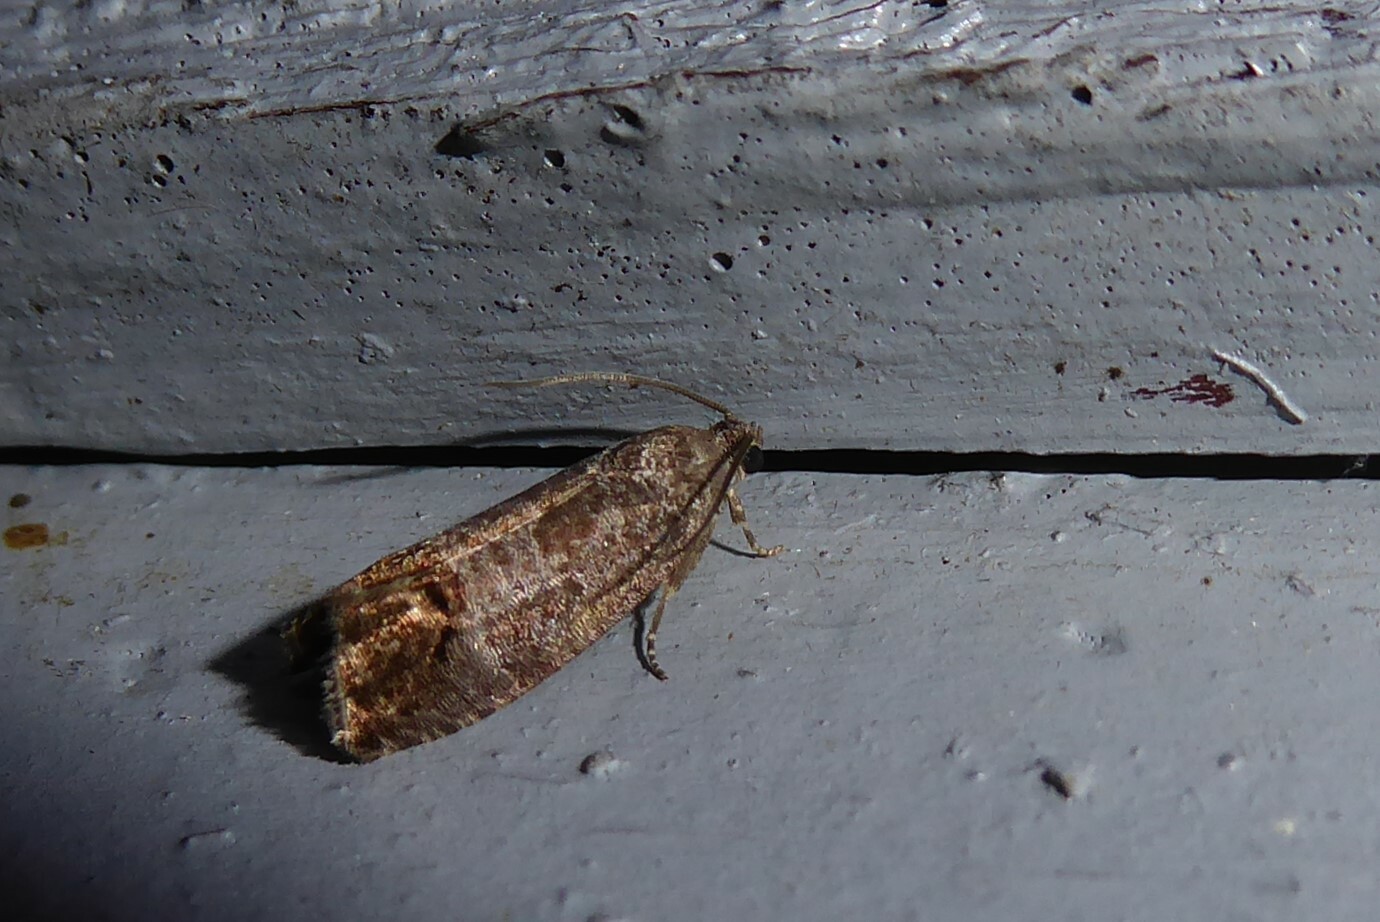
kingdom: Animalia
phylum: Arthropoda
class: Insecta
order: Lepidoptera
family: Tortricidae
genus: Cydia
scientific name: Cydia pomonella
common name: Codling moth
